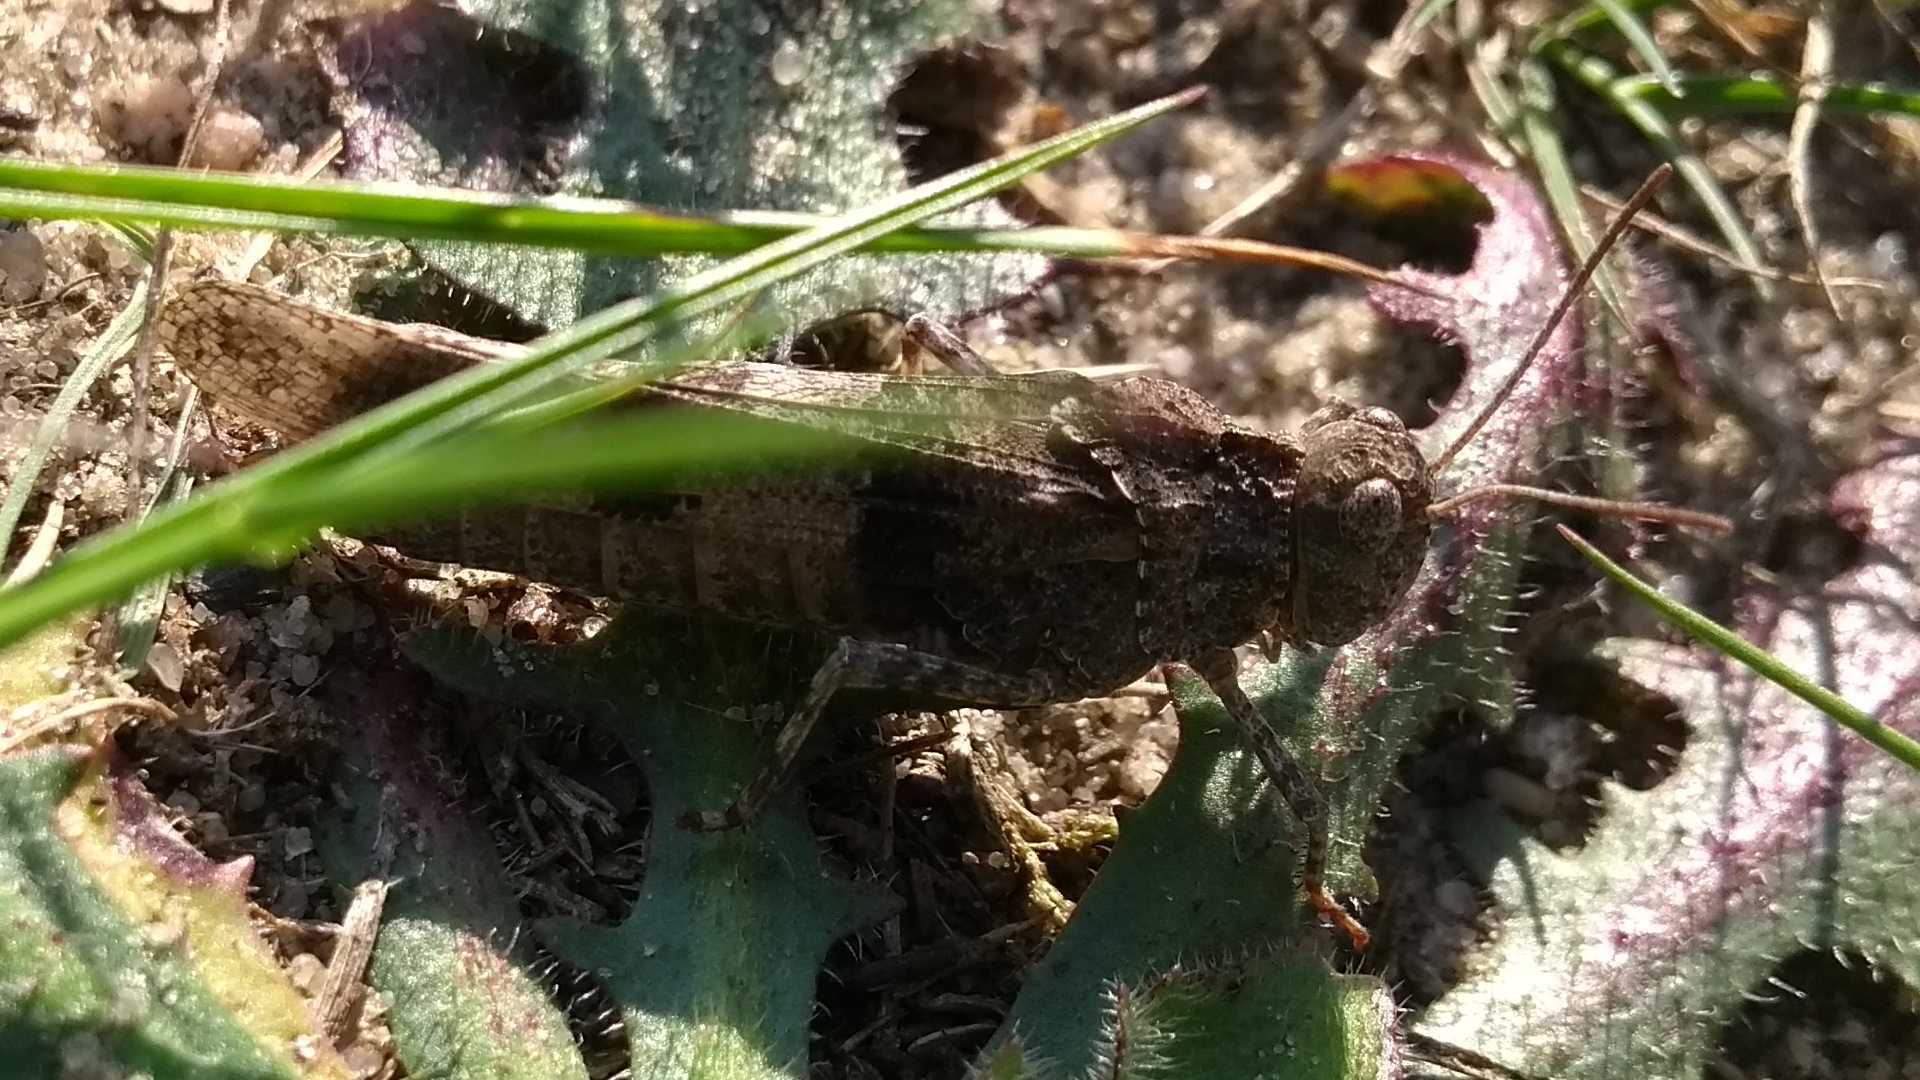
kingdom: Animalia
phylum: Arthropoda
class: Insecta
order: Orthoptera
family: Acrididae
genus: Oedipoda
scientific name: Oedipoda caerulescens
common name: Blue-winged grasshopper
